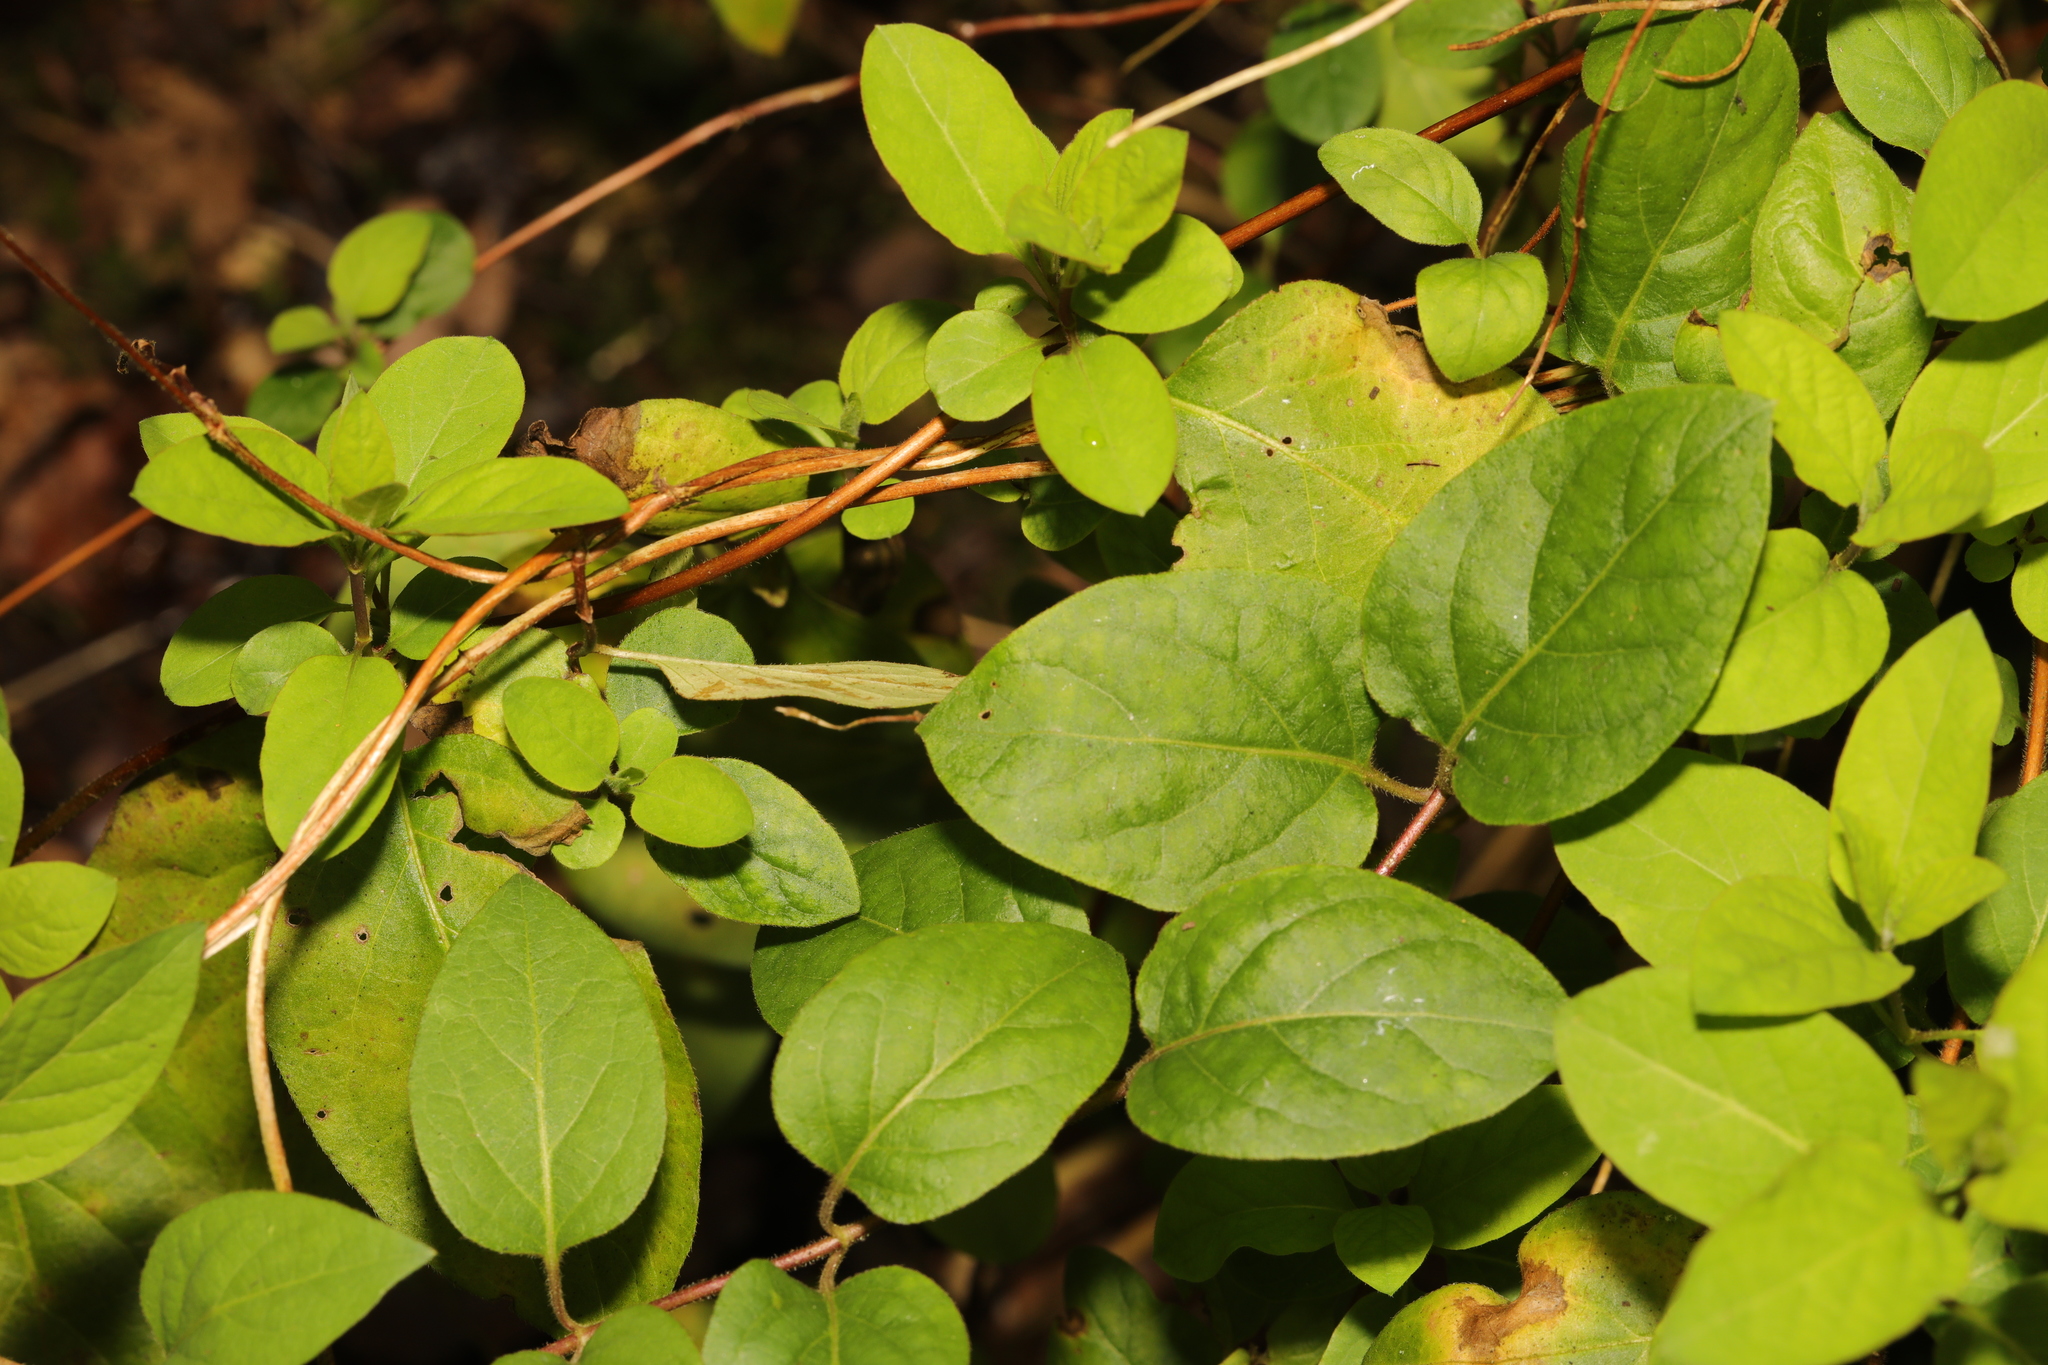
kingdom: Plantae
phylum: Tracheophyta
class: Magnoliopsida
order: Dipsacales
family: Caprifoliaceae
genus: Lonicera
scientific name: Lonicera periclymenum
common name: European honeysuckle
